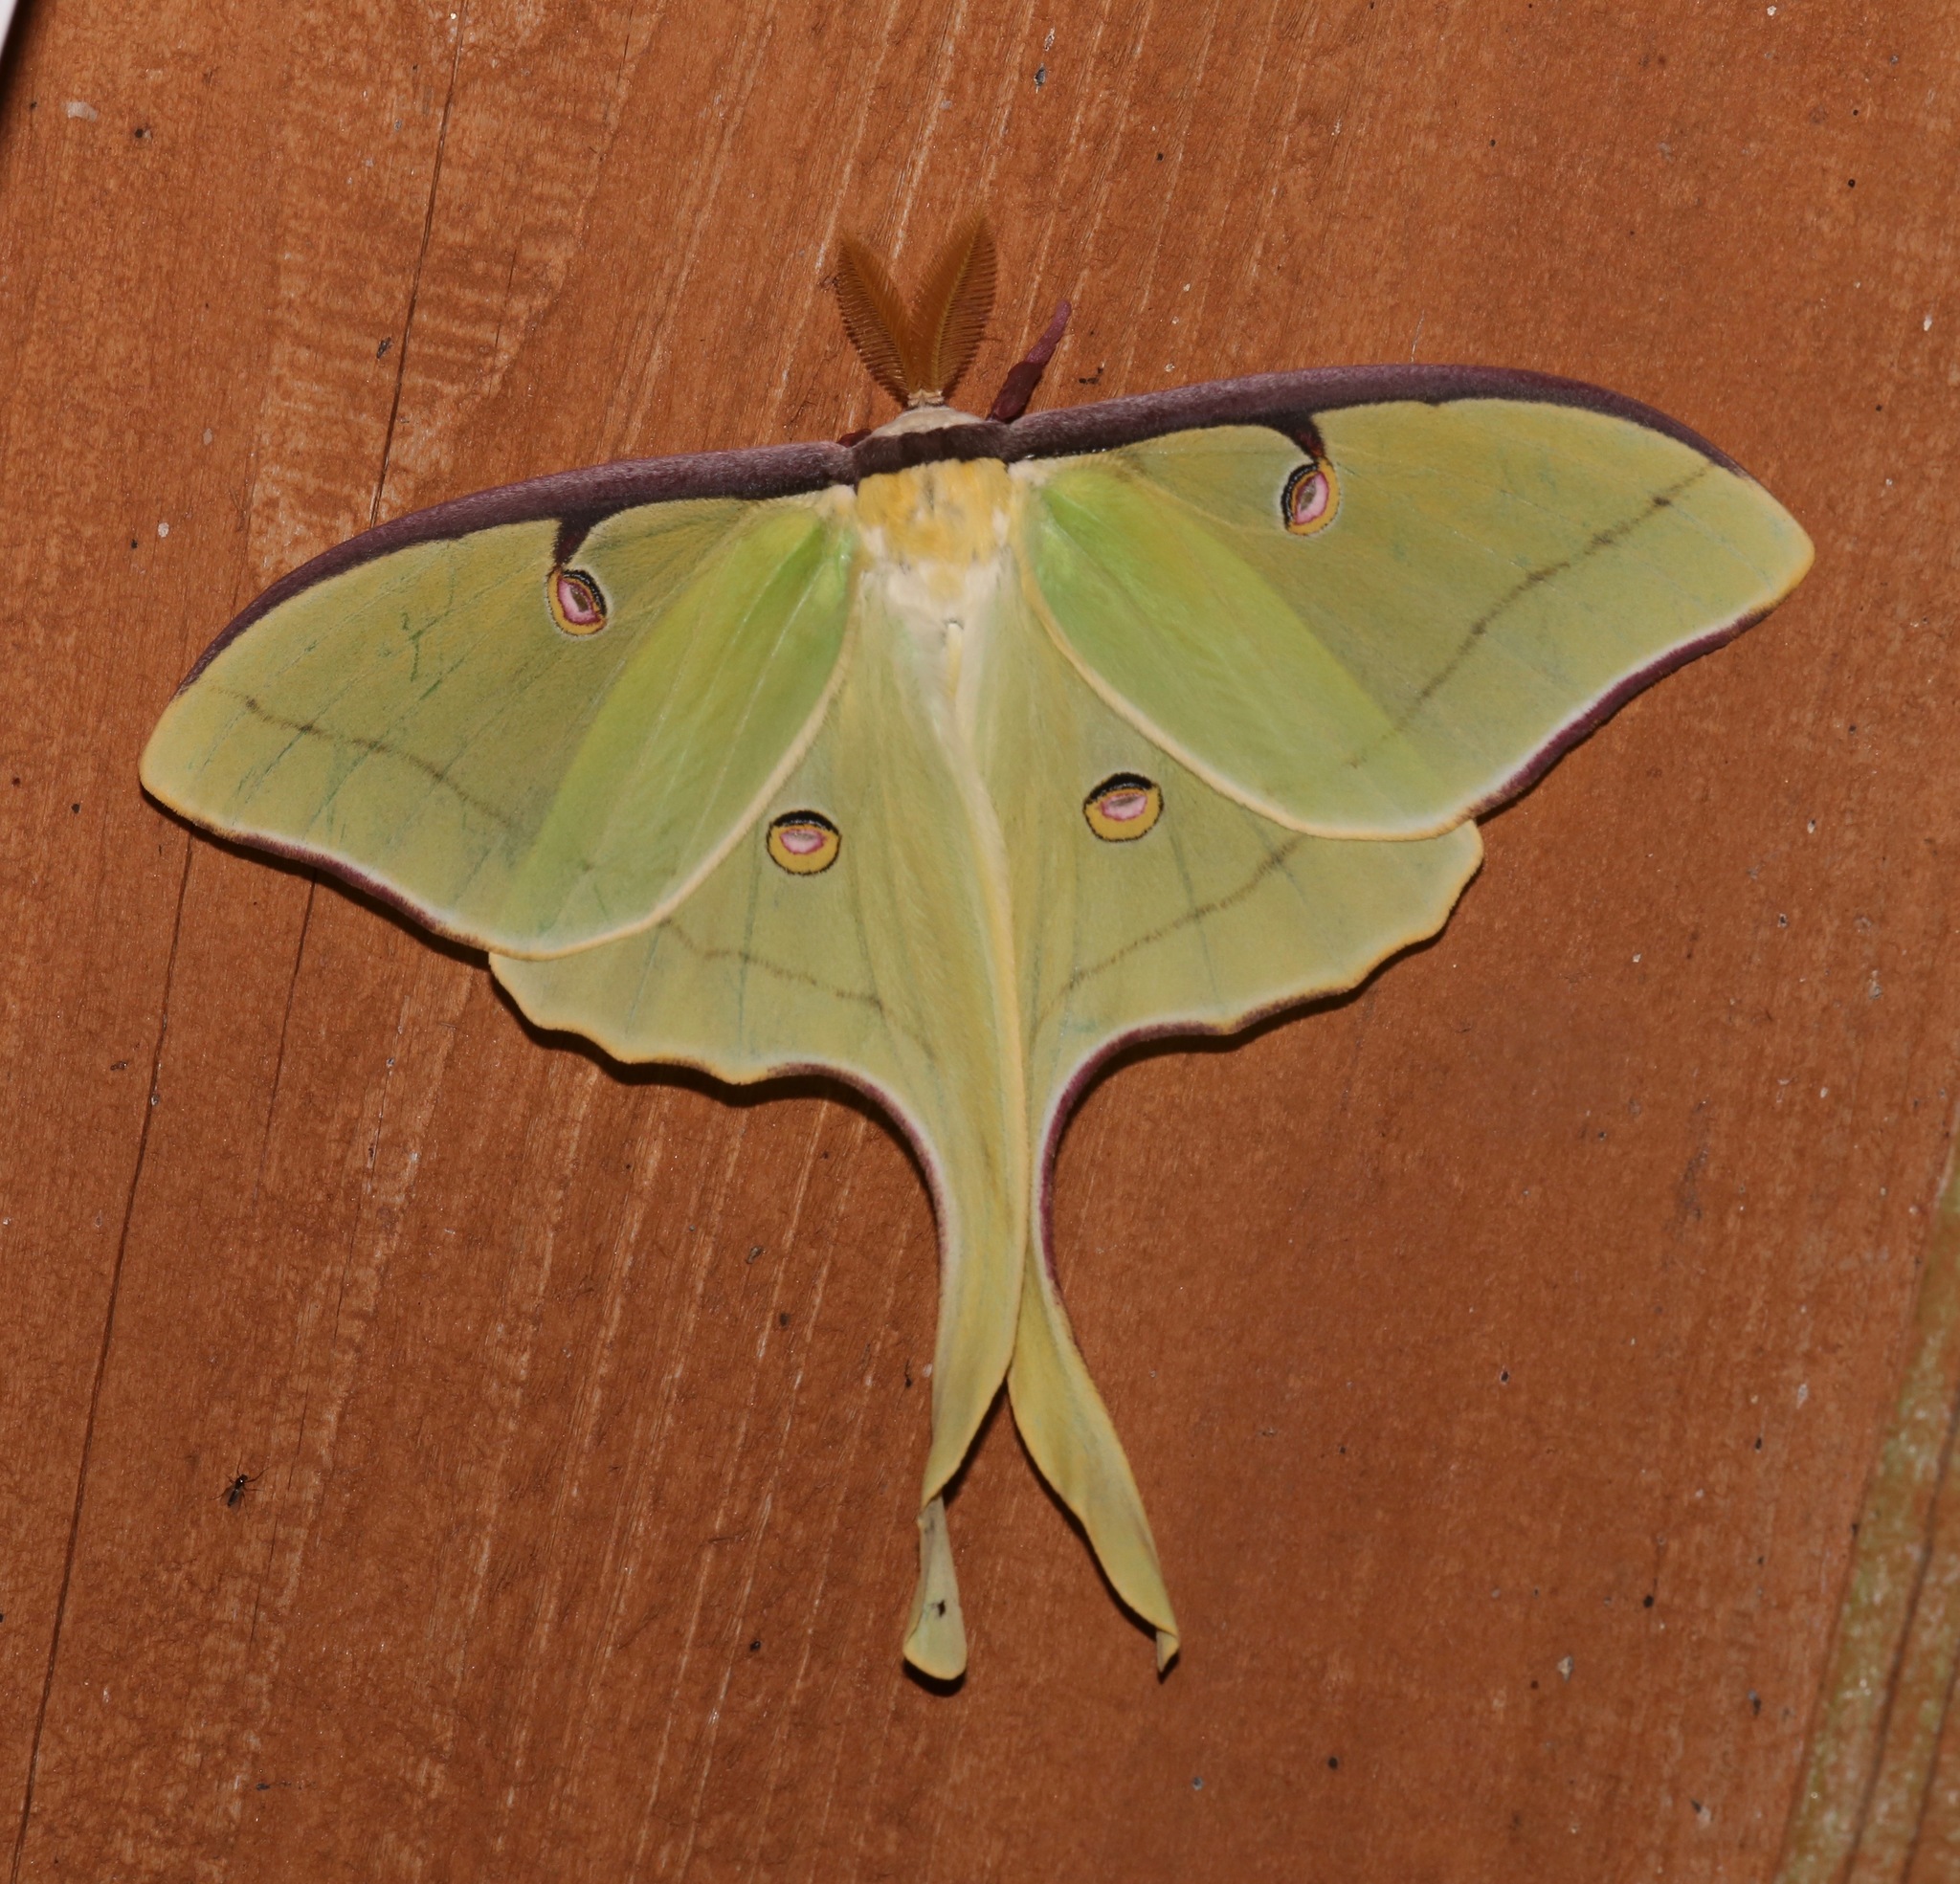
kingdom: Animalia
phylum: Arthropoda
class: Insecta
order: Lepidoptera
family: Saturniidae
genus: Actias
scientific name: Actias luna
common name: Luna moth
